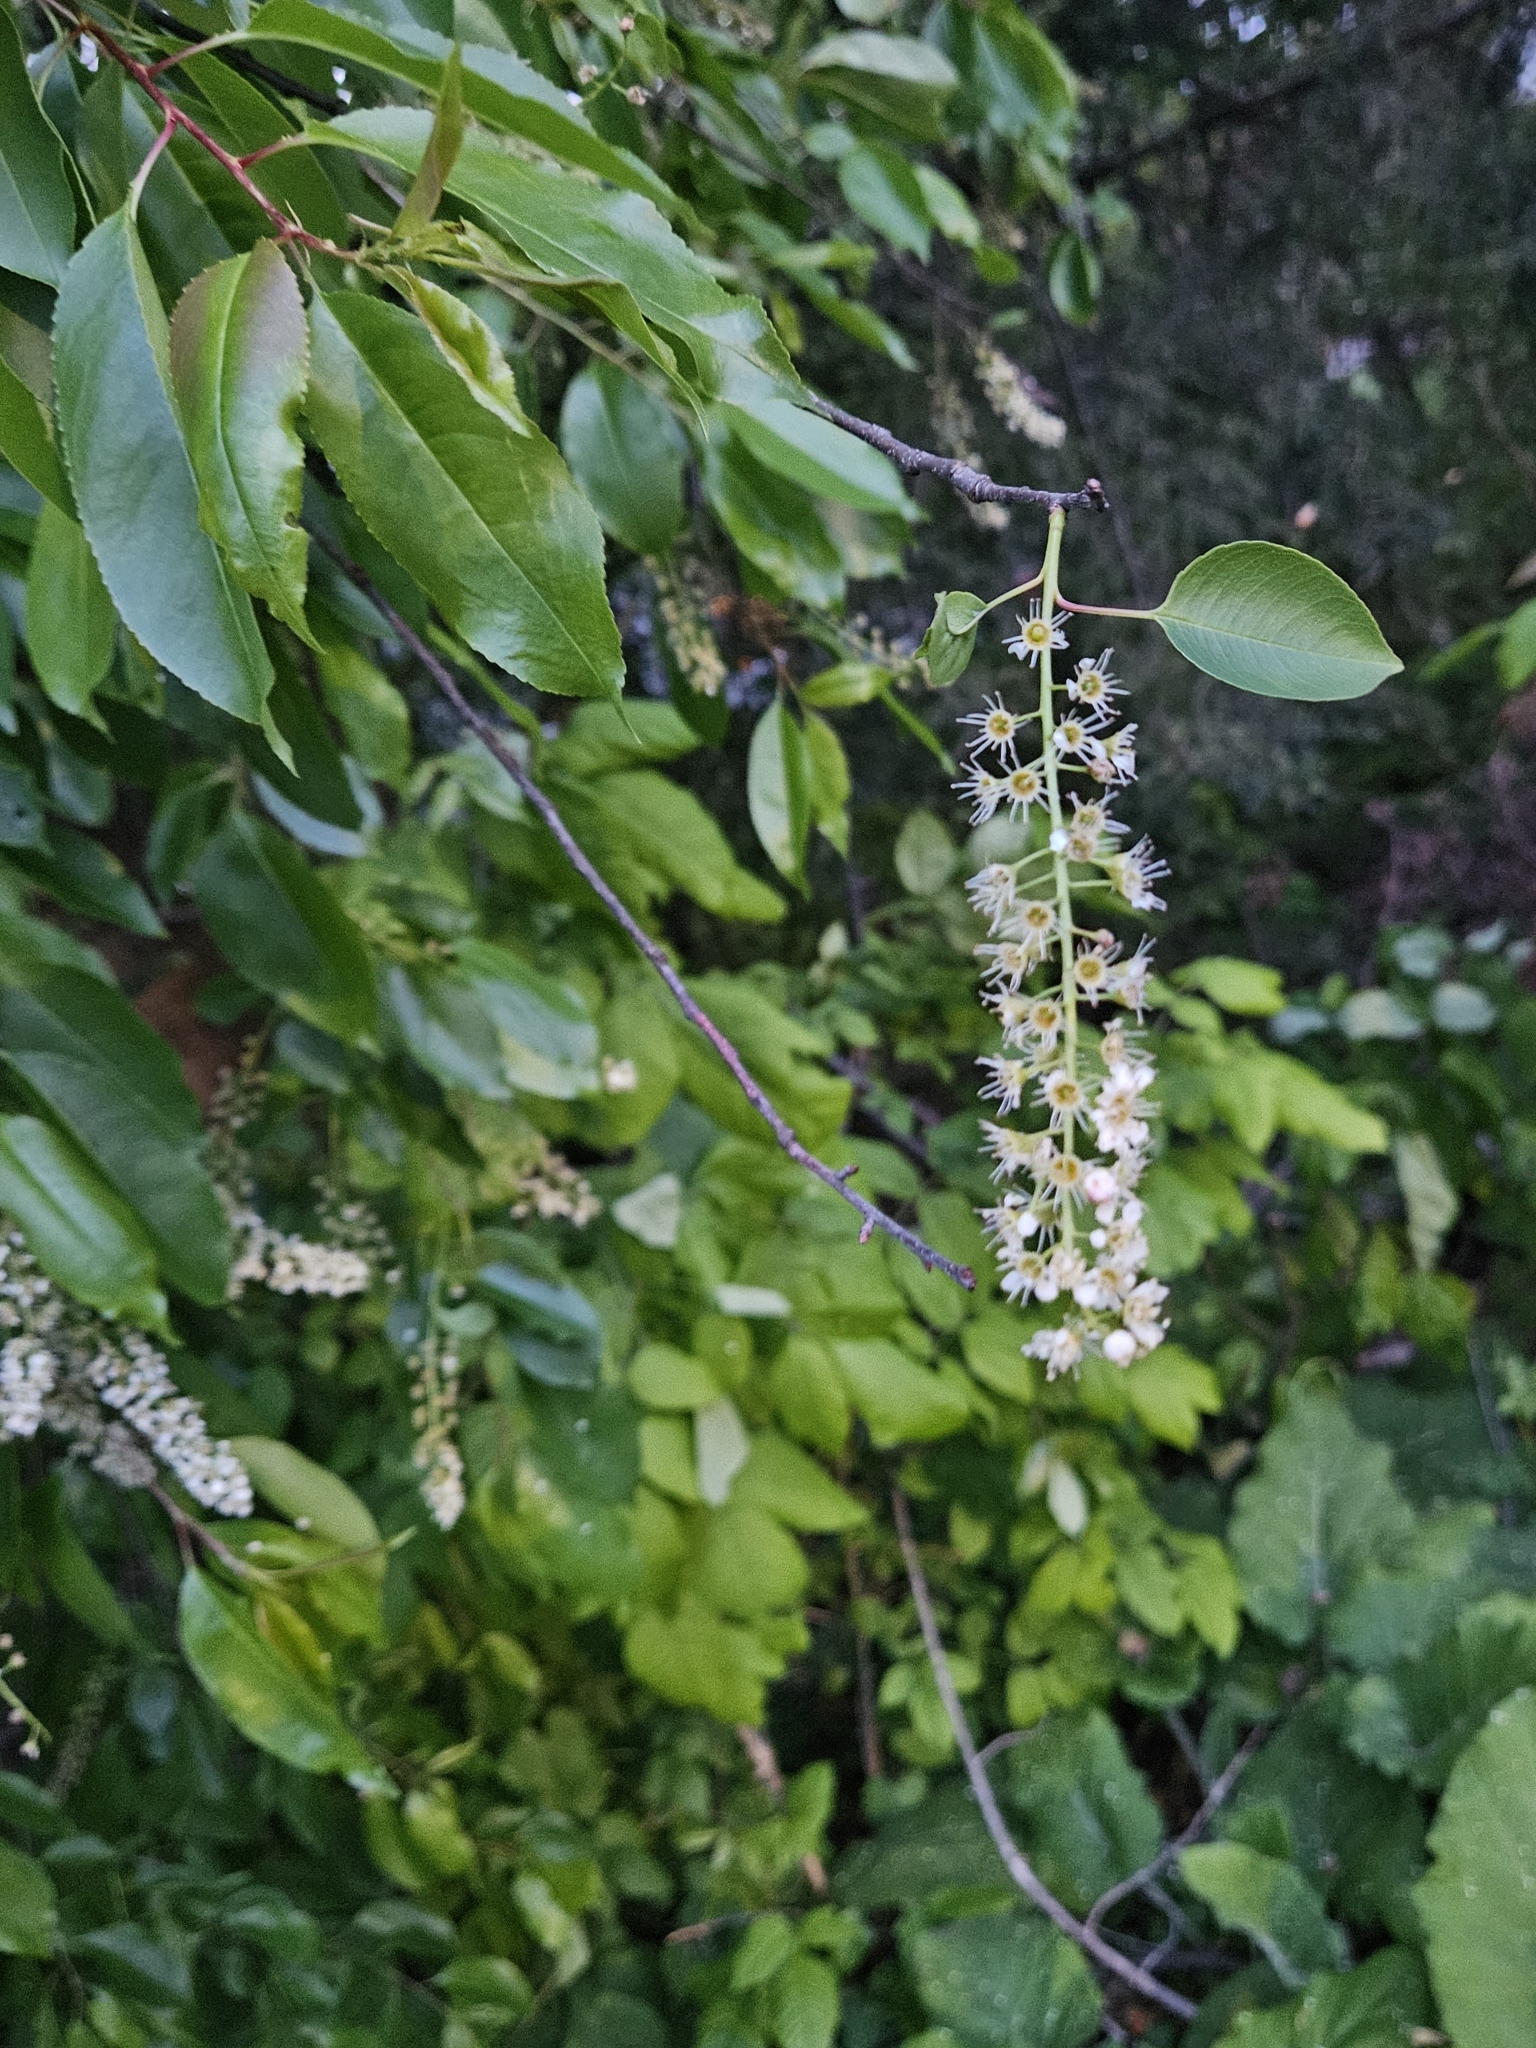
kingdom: Plantae
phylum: Tracheophyta
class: Magnoliopsida
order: Rosales
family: Rosaceae
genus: Prunus
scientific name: Prunus serotina
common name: Black cherry
